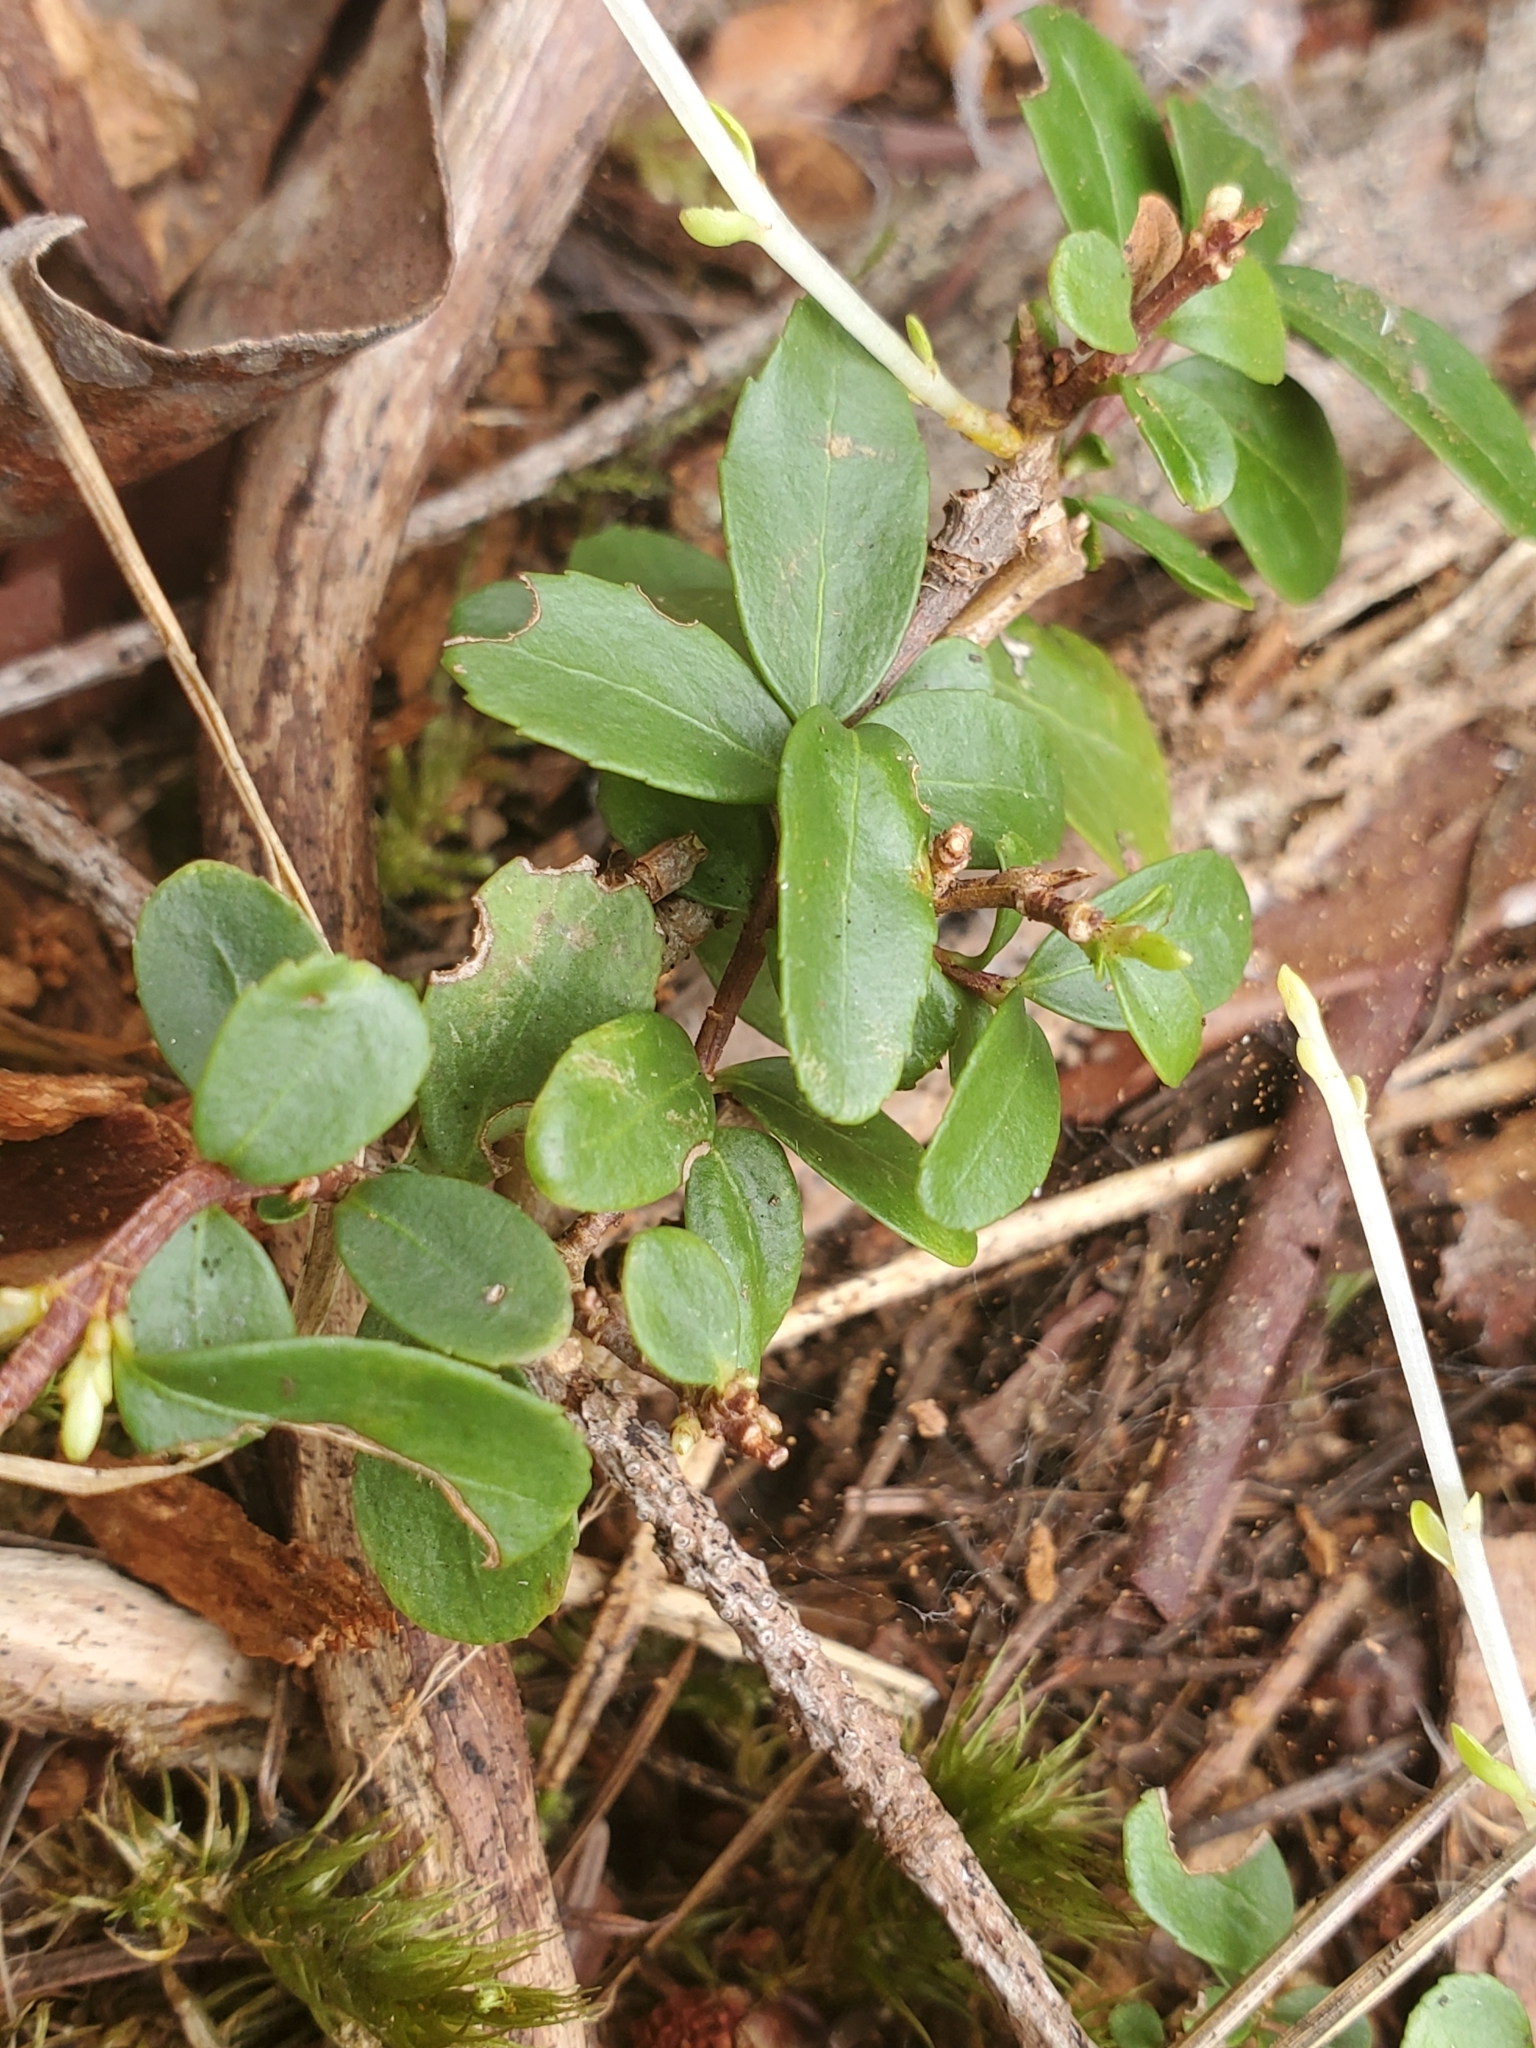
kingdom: Plantae
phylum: Tracheophyta
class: Magnoliopsida
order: Celastrales
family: Celastraceae
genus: Paxistima
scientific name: Paxistima myrsinites
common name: Mountain-lover
